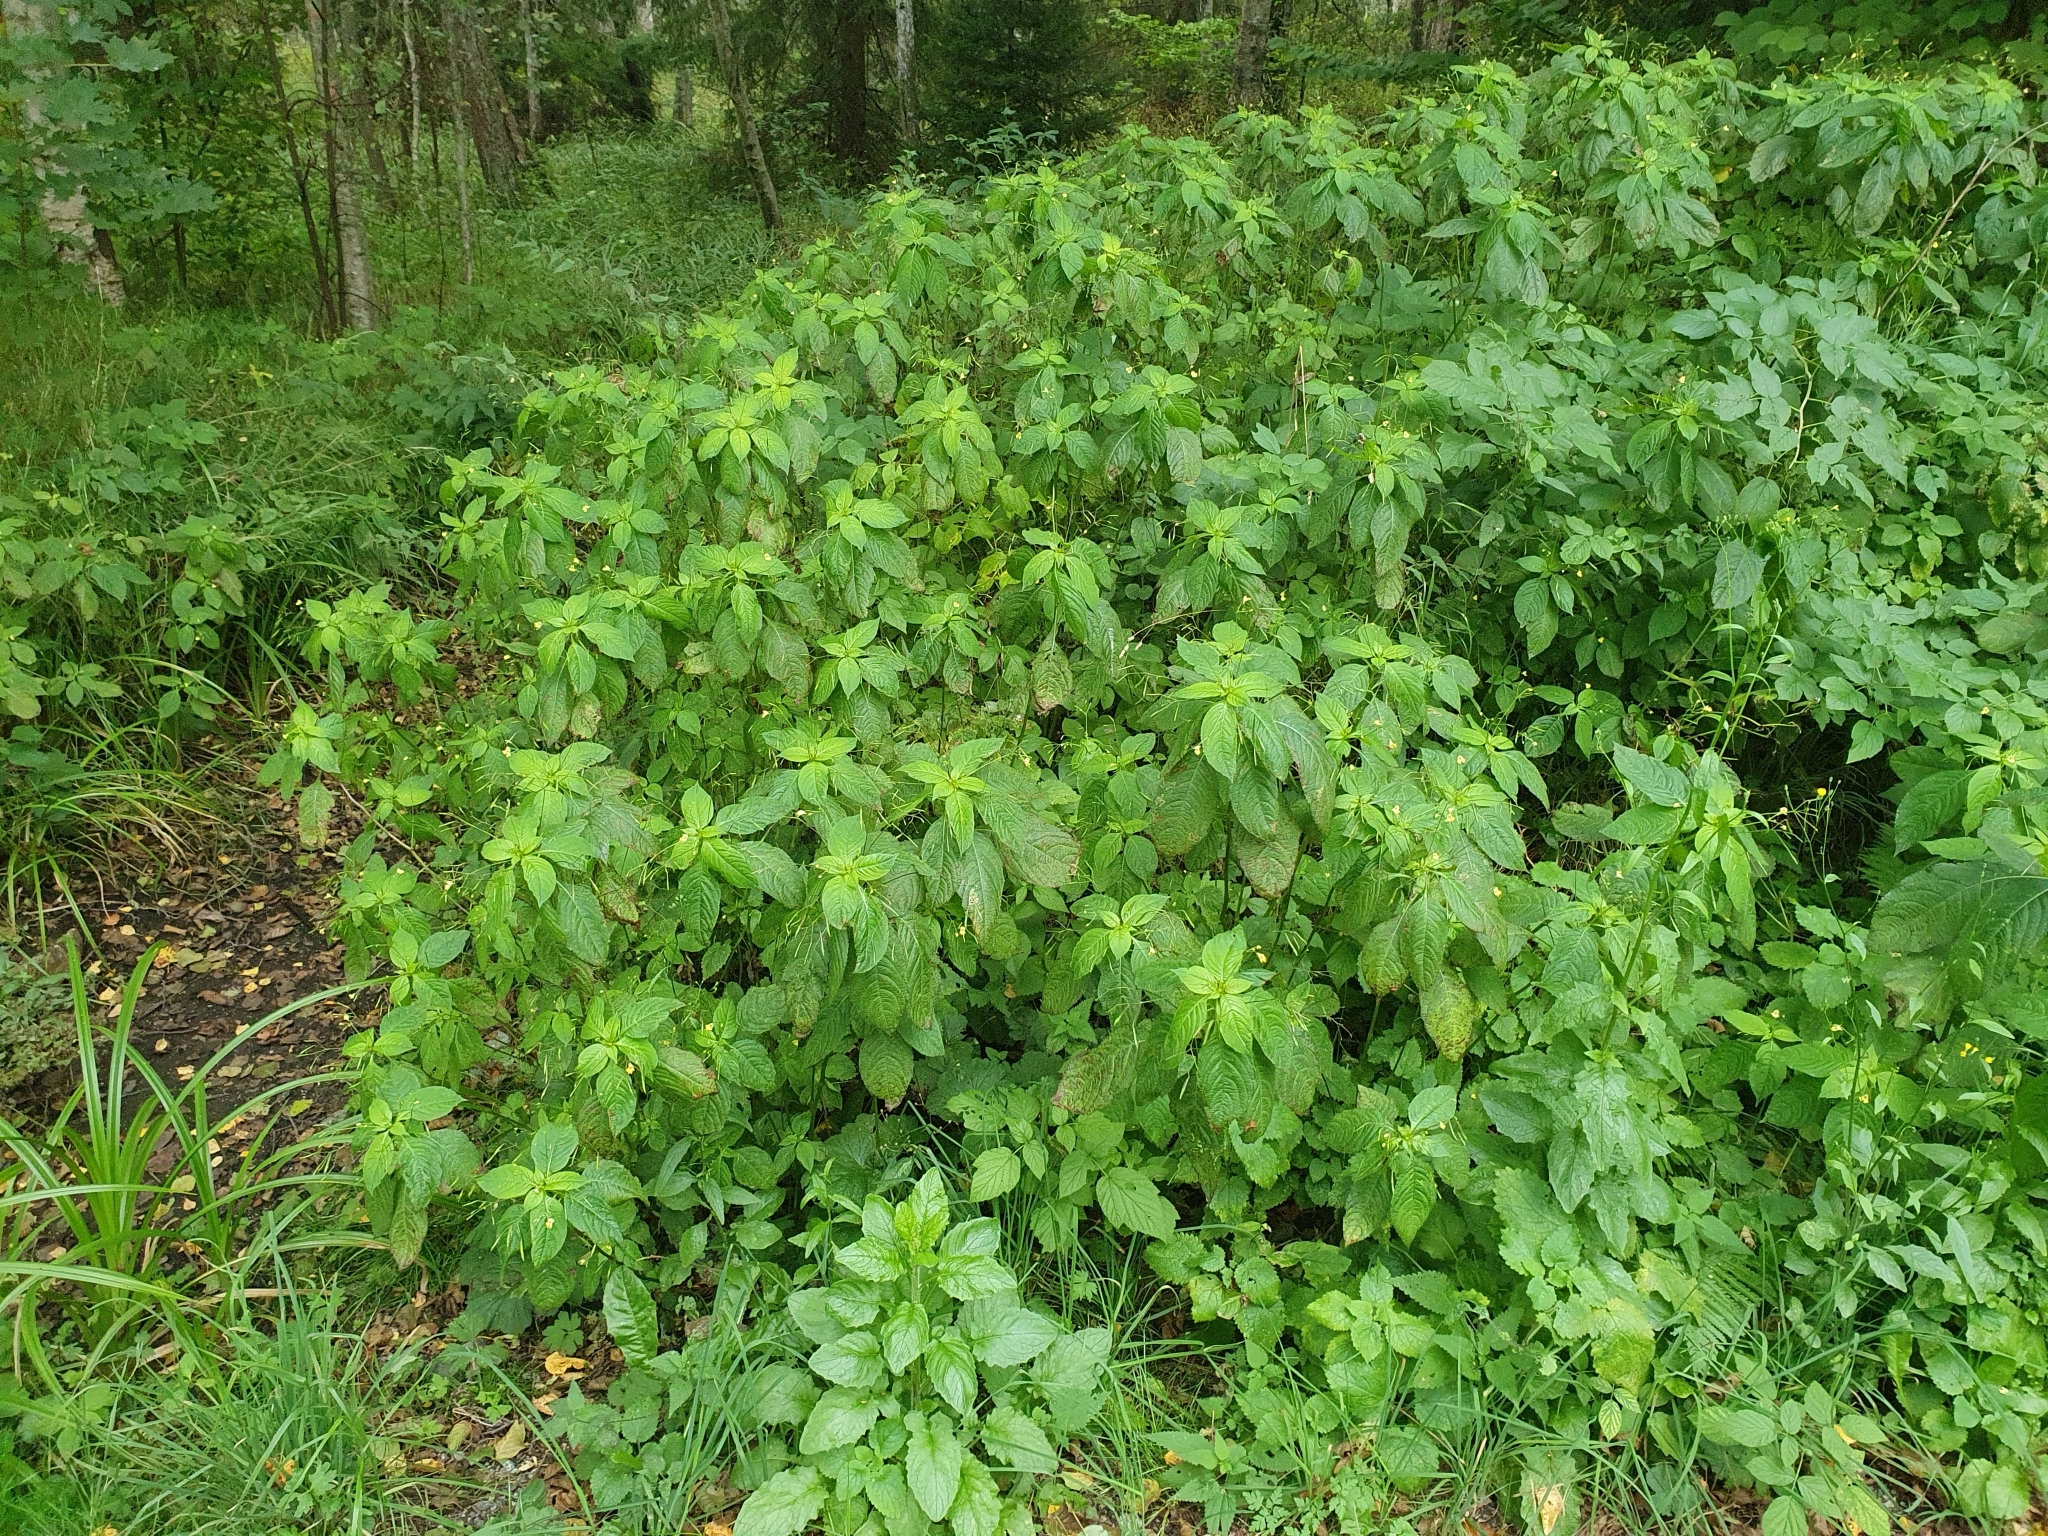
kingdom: Plantae
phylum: Tracheophyta
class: Magnoliopsida
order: Ericales
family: Balsaminaceae
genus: Impatiens
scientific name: Impatiens parviflora
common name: Small balsam
